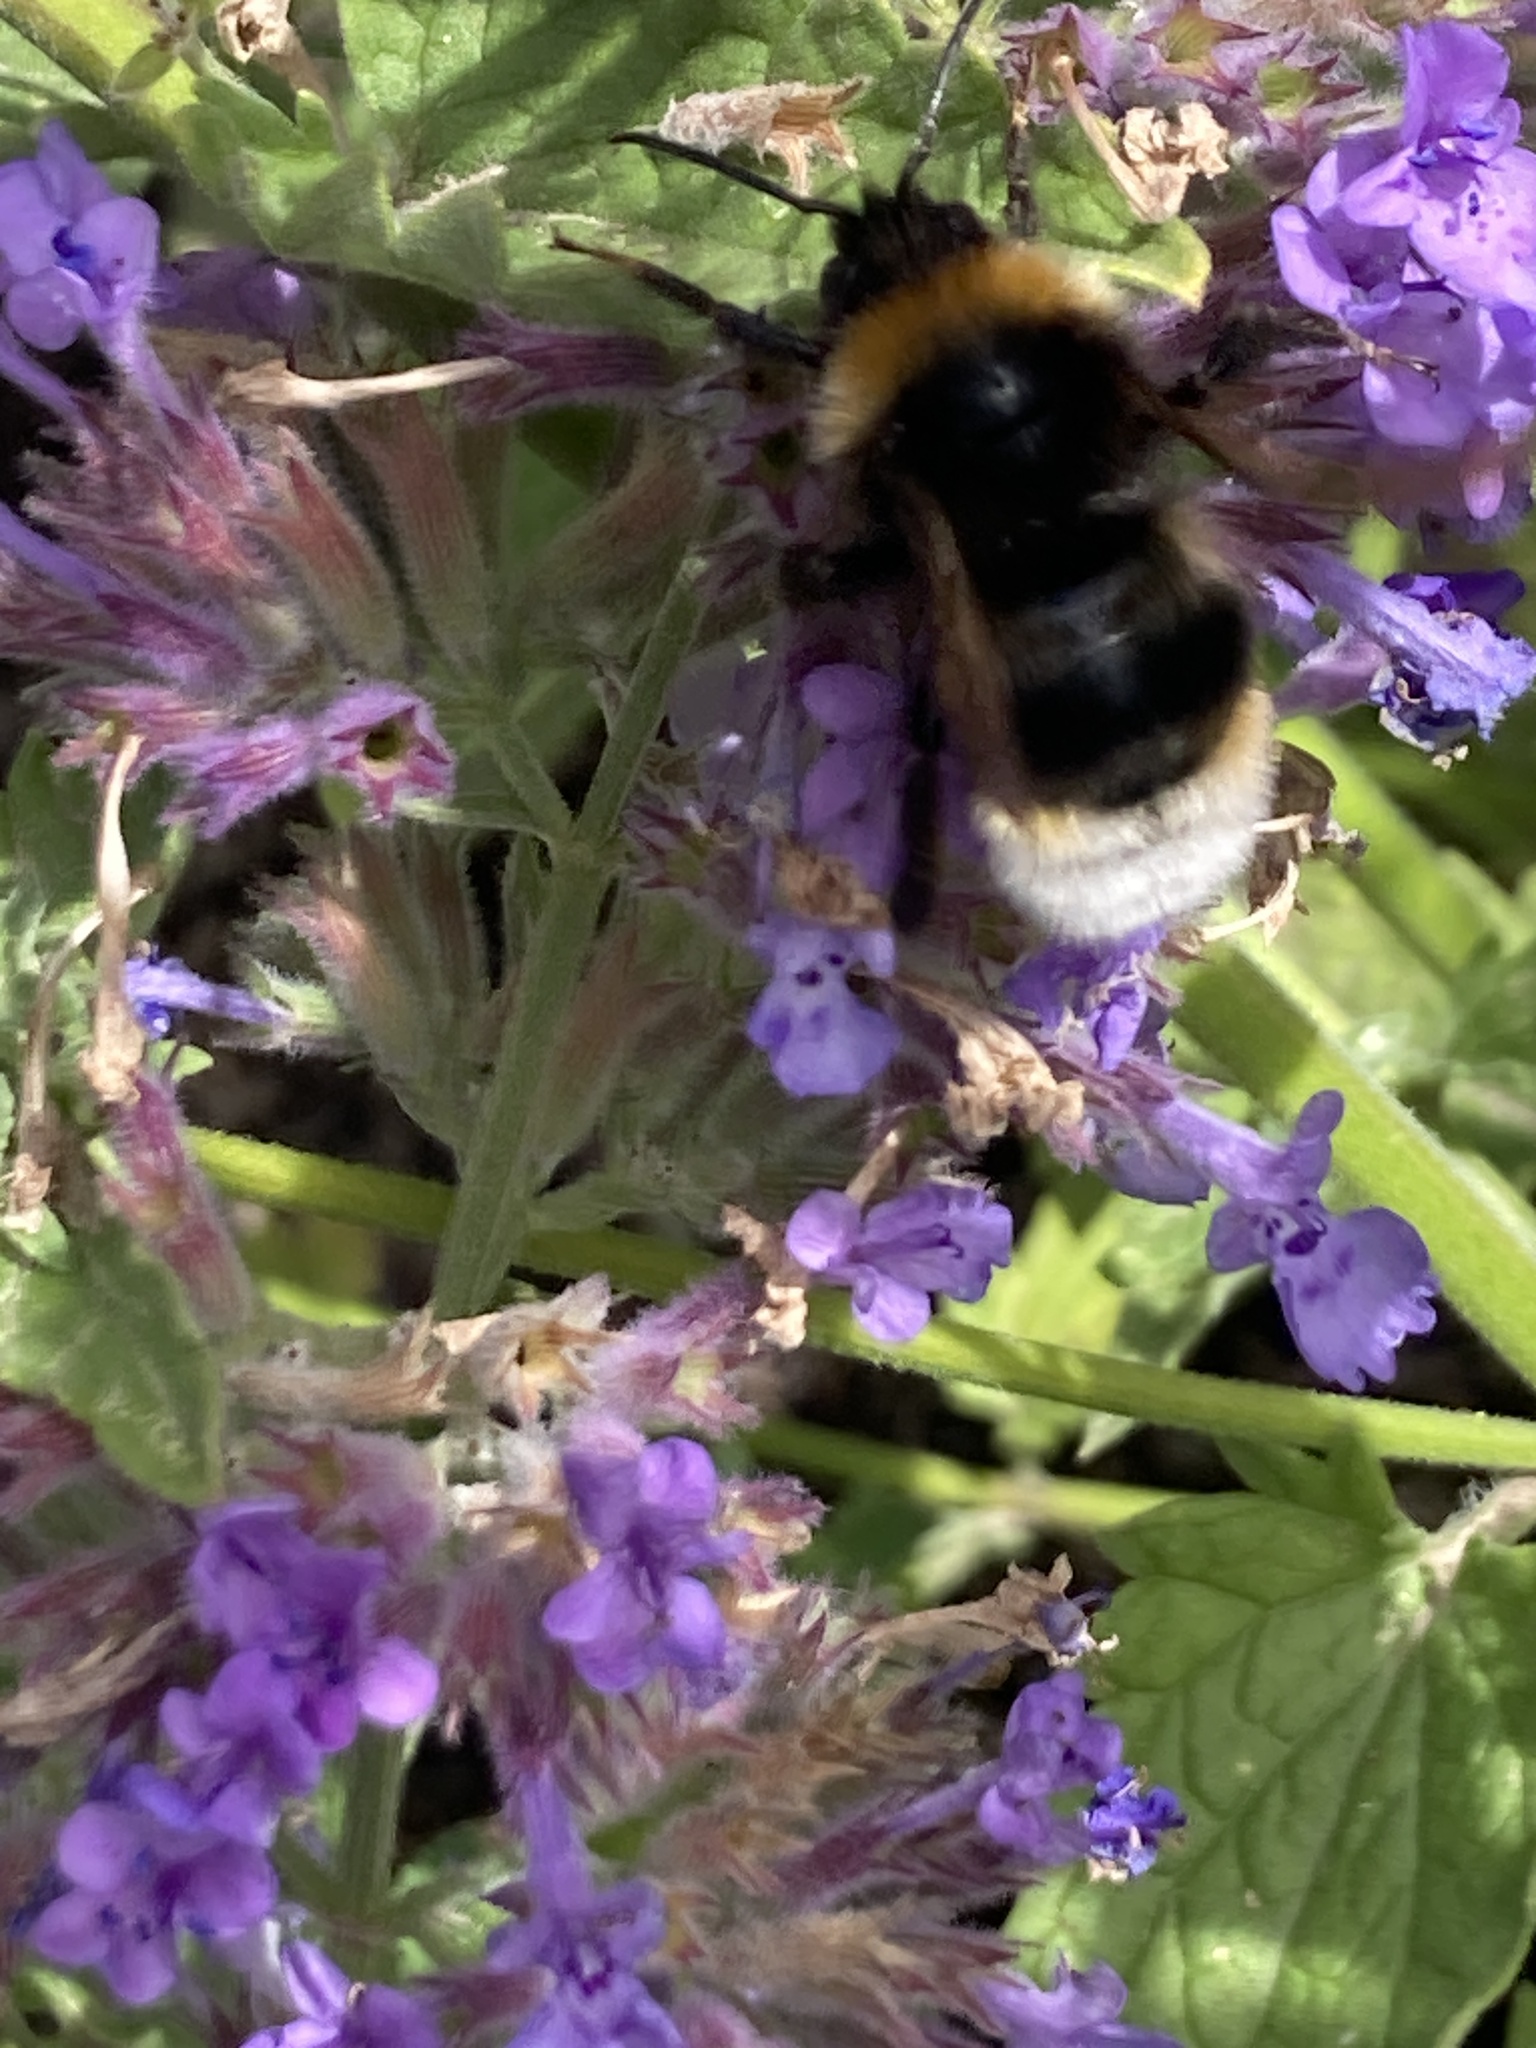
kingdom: Animalia
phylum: Arthropoda
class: Insecta
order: Hymenoptera
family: Apidae
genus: Bombus
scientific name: Bombus vestalis
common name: Vestal cuckoo bee
